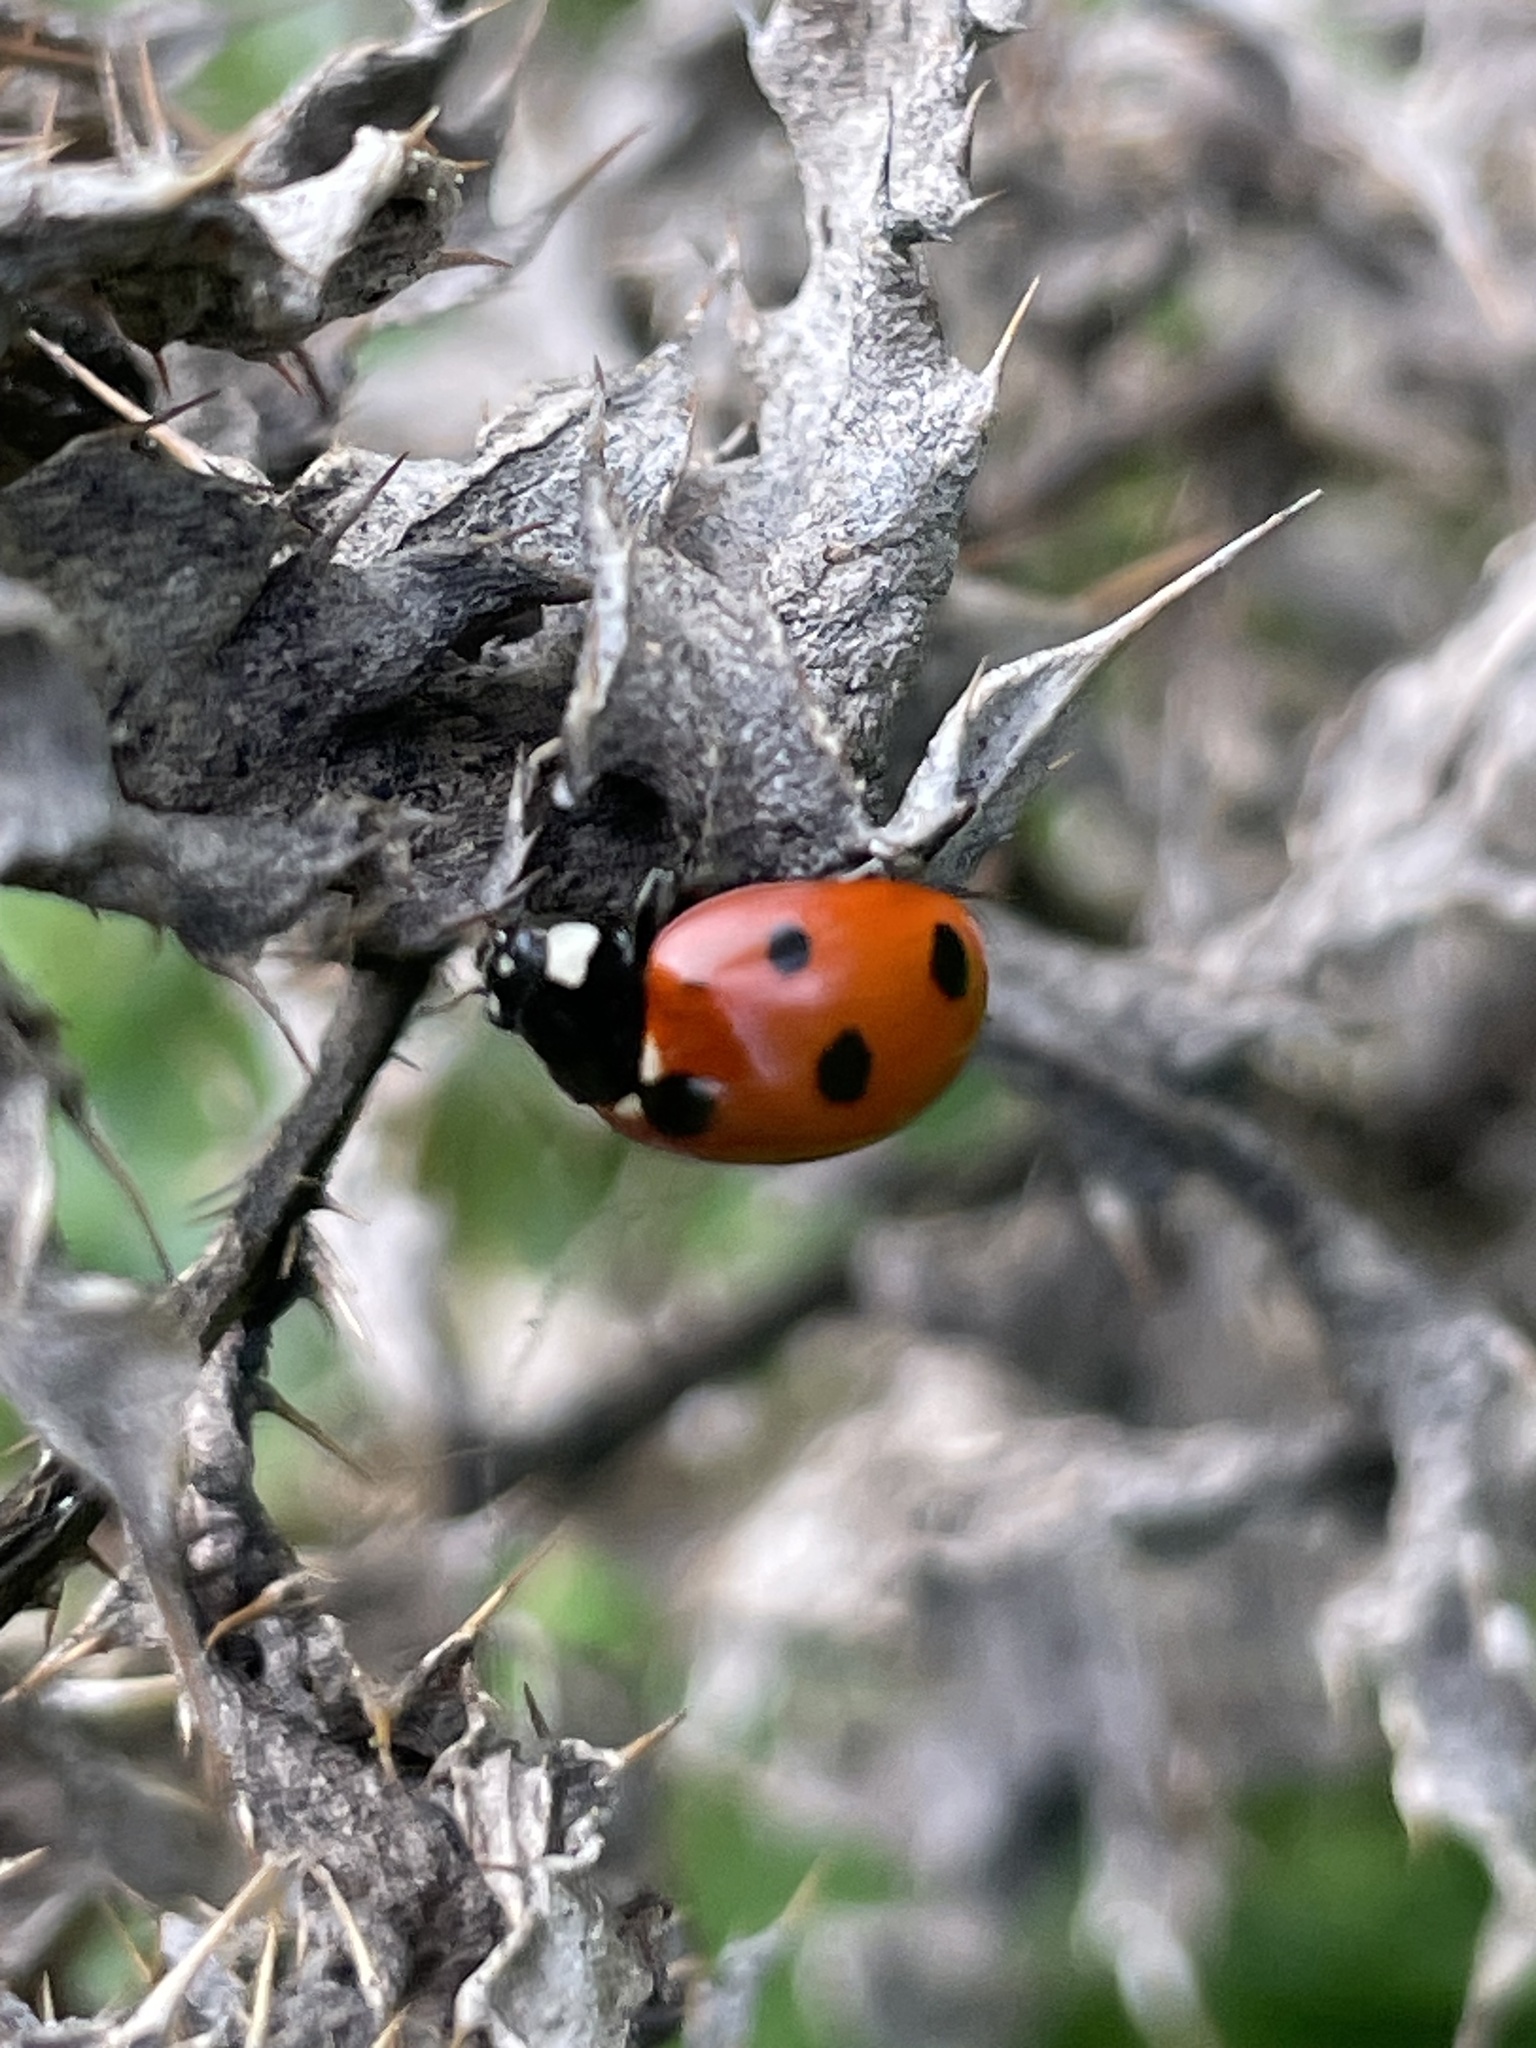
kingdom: Animalia
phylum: Arthropoda
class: Insecta
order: Coleoptera
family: Coccinellidae
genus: Coccinella
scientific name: Coccinella septempunctata
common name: Sevenspotted lady beetle
